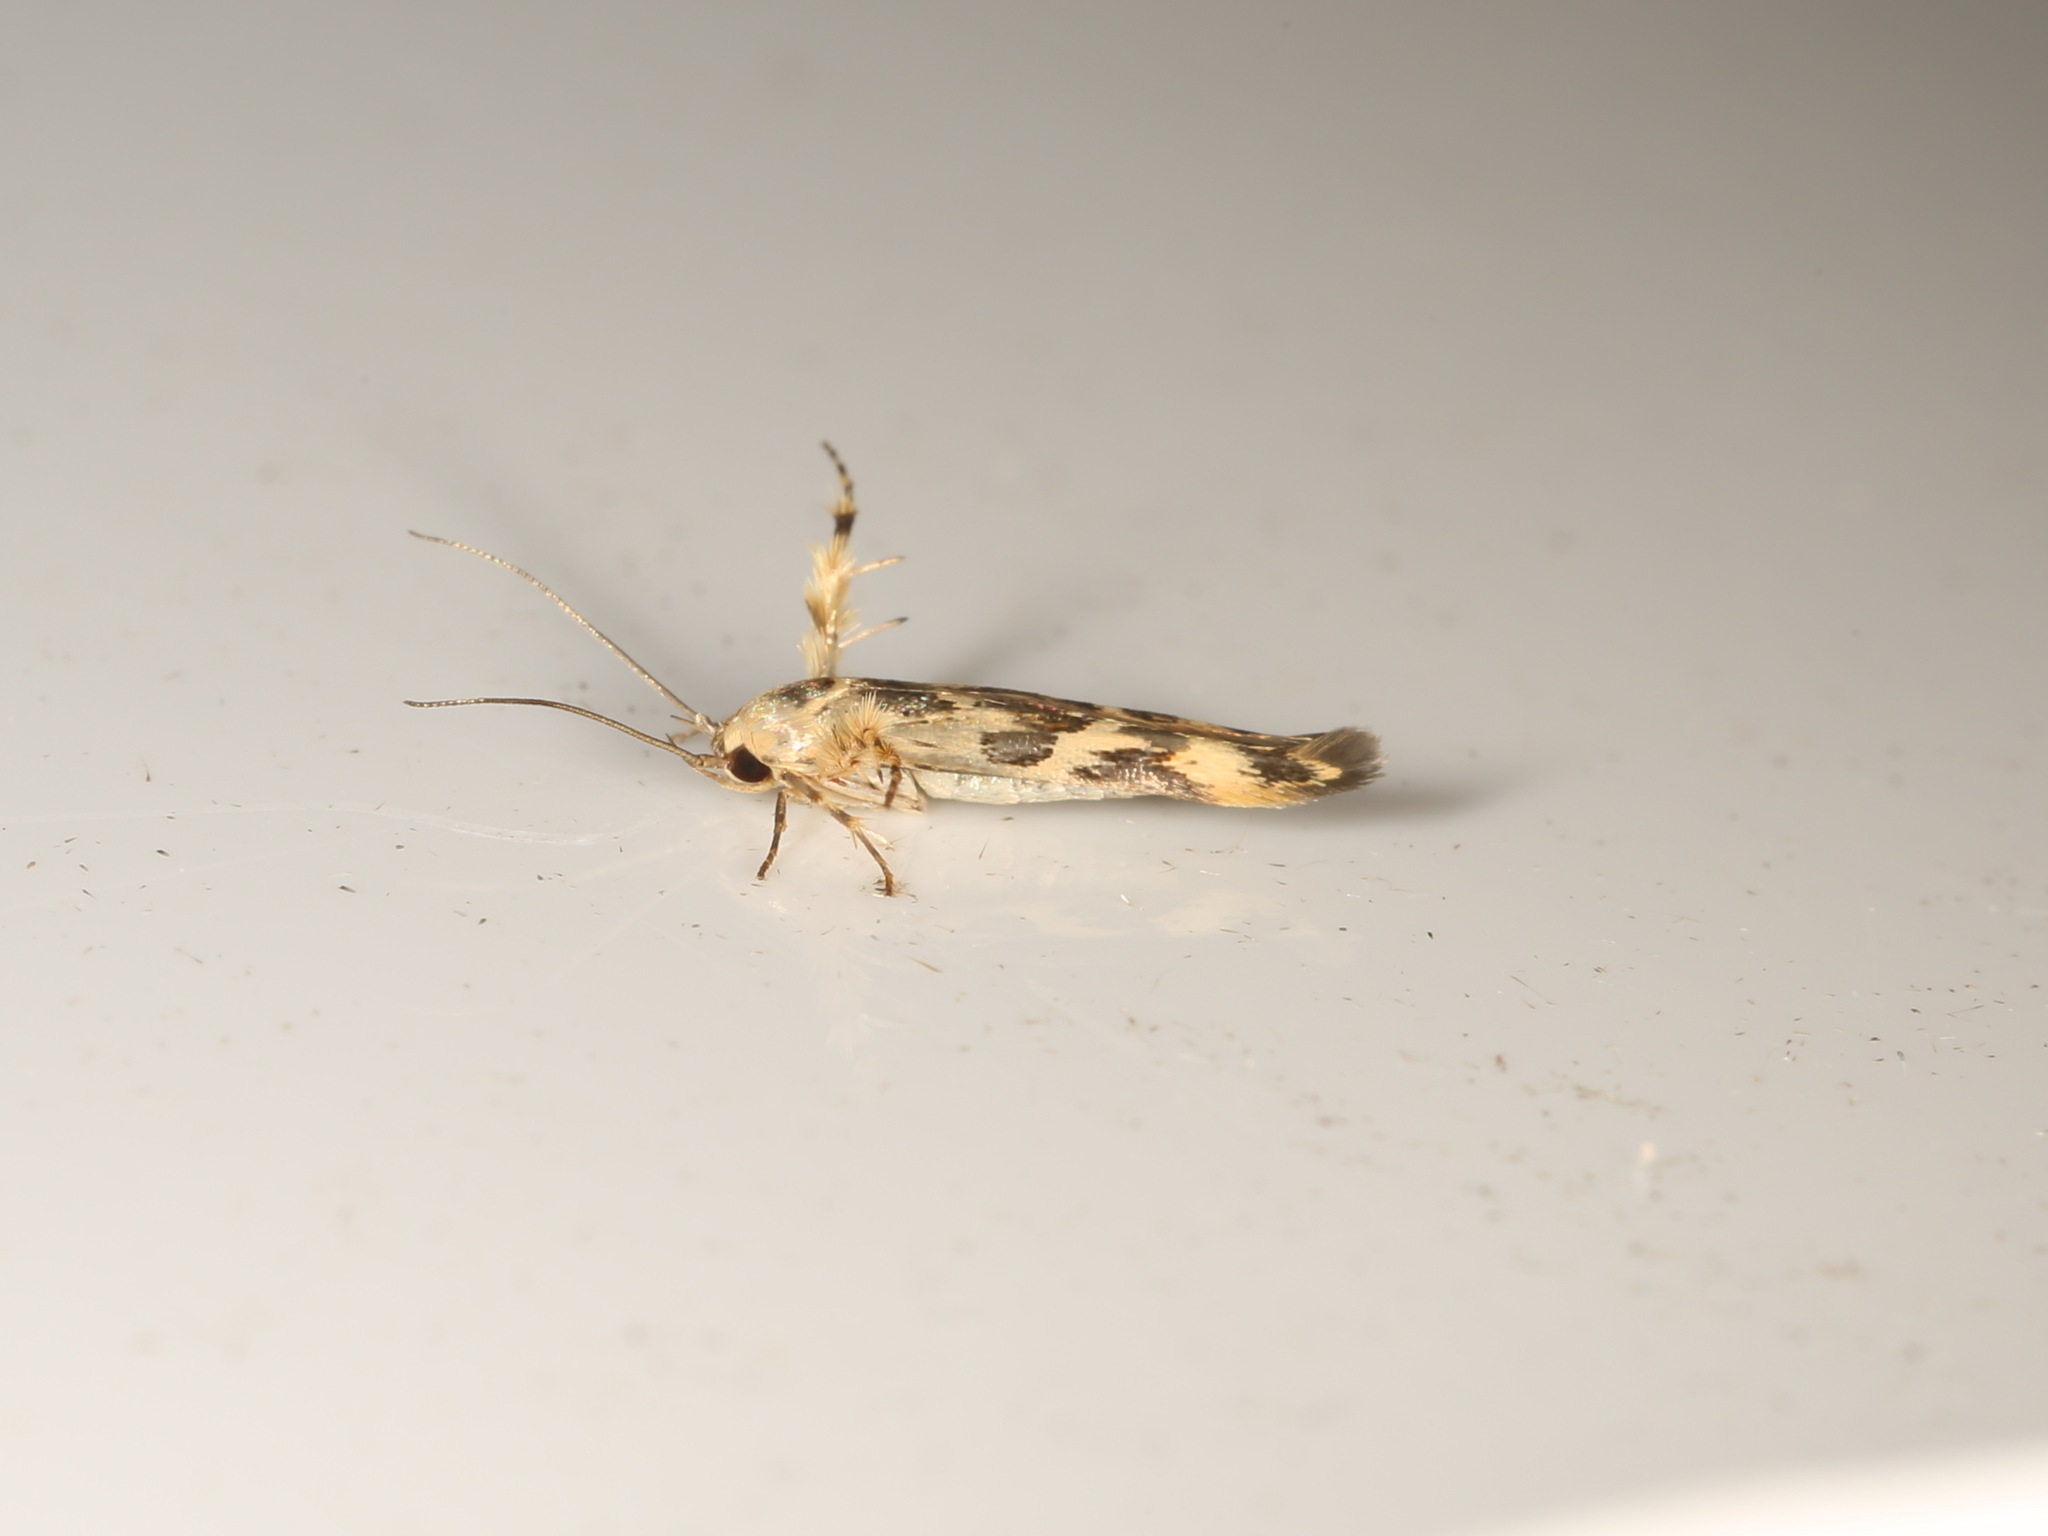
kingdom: Animalia
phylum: Arthropoda
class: Insecta
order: Lepidoptera
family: Stathmopodidae
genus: Stathmopoda
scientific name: Stathmopoda melanochra
